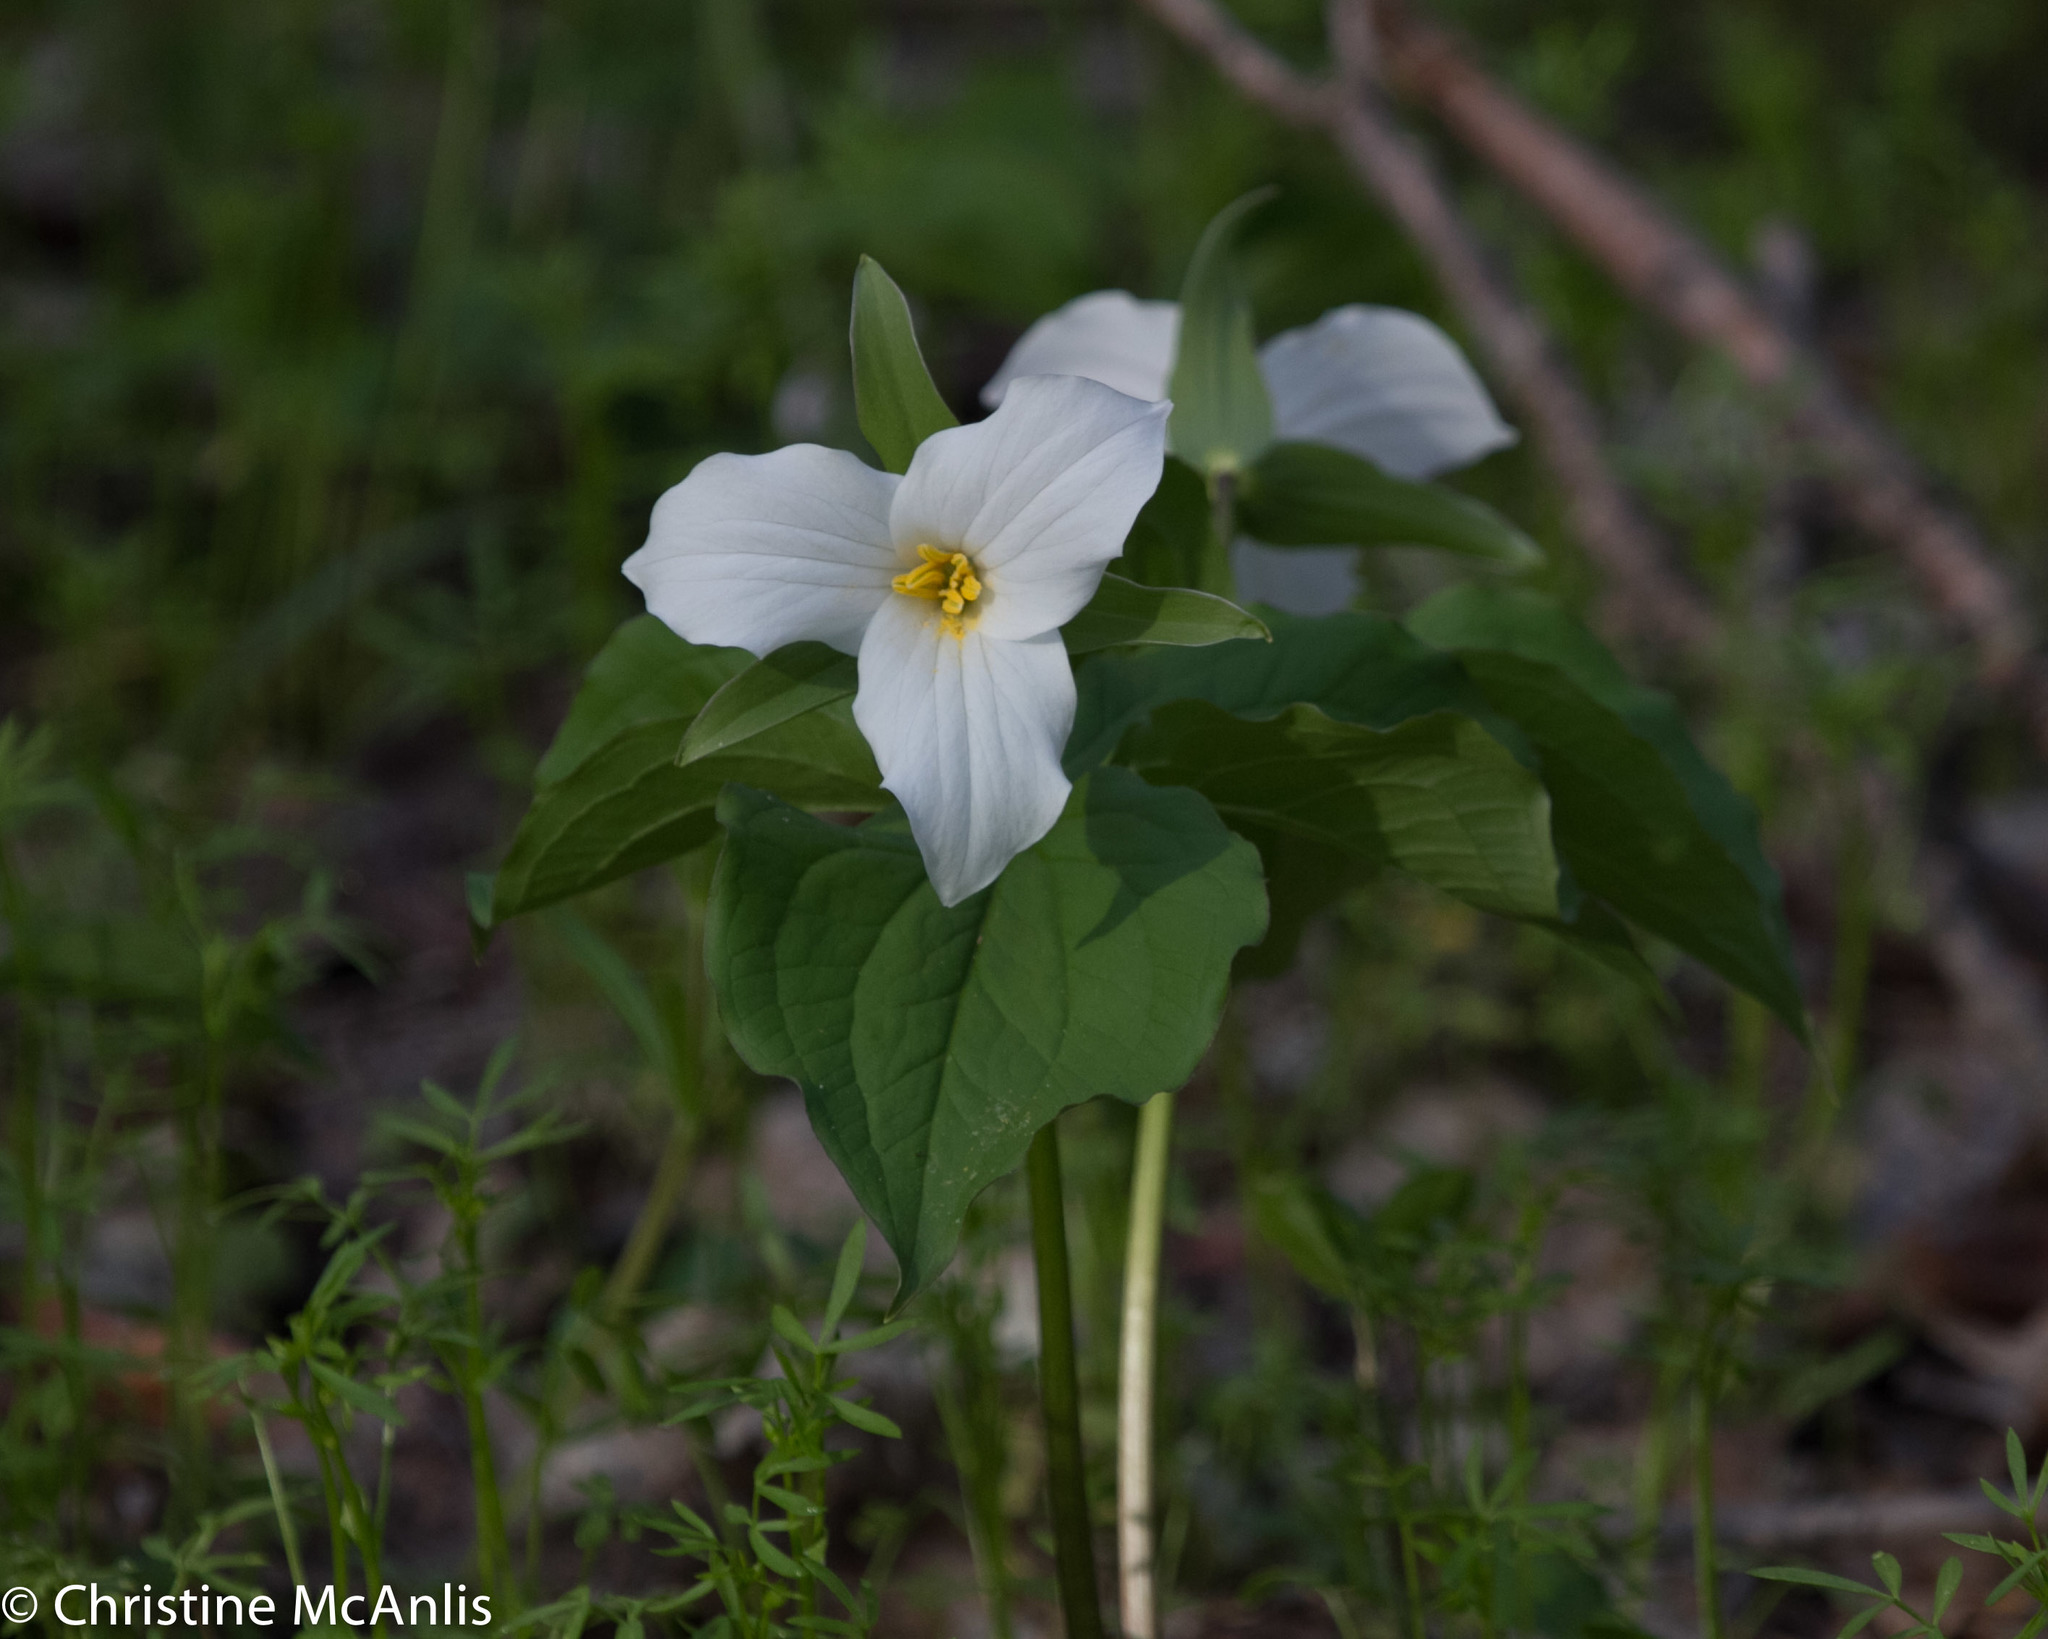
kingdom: Plantae
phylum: Tracheophyta
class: Liliopsida
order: Liliales
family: Melanthiaceae
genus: Trillium
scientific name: Trillium grandiflorum
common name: Great white trillium
